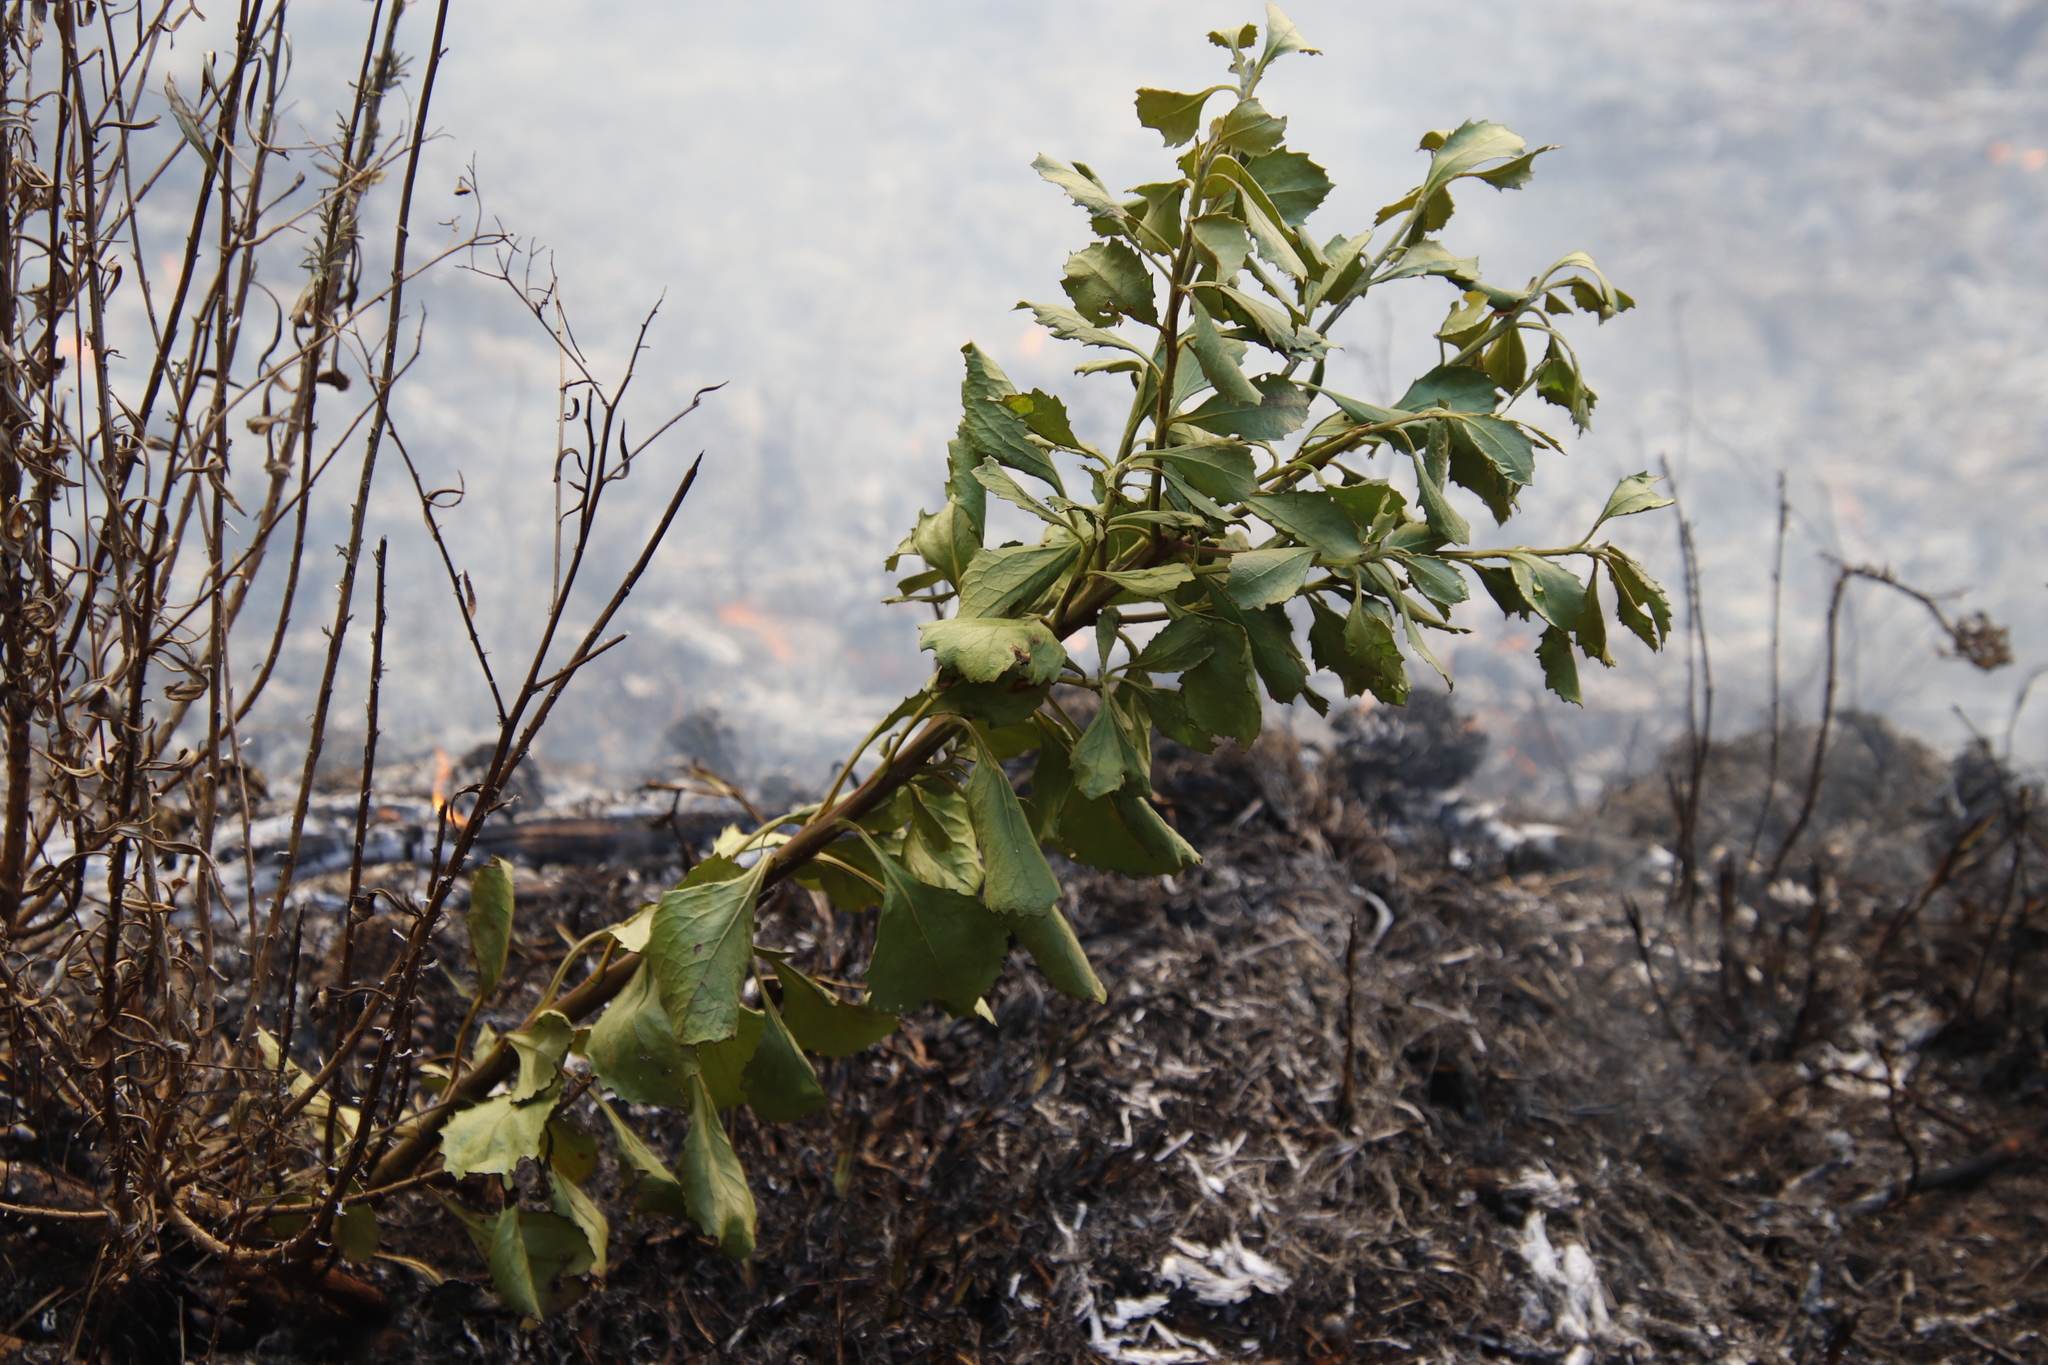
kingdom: Plantae
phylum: Tracheophyta
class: Magnoliopsida
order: Asterales
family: Asteraceae
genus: Osteospermum
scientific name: Osteospermum moniliferum
